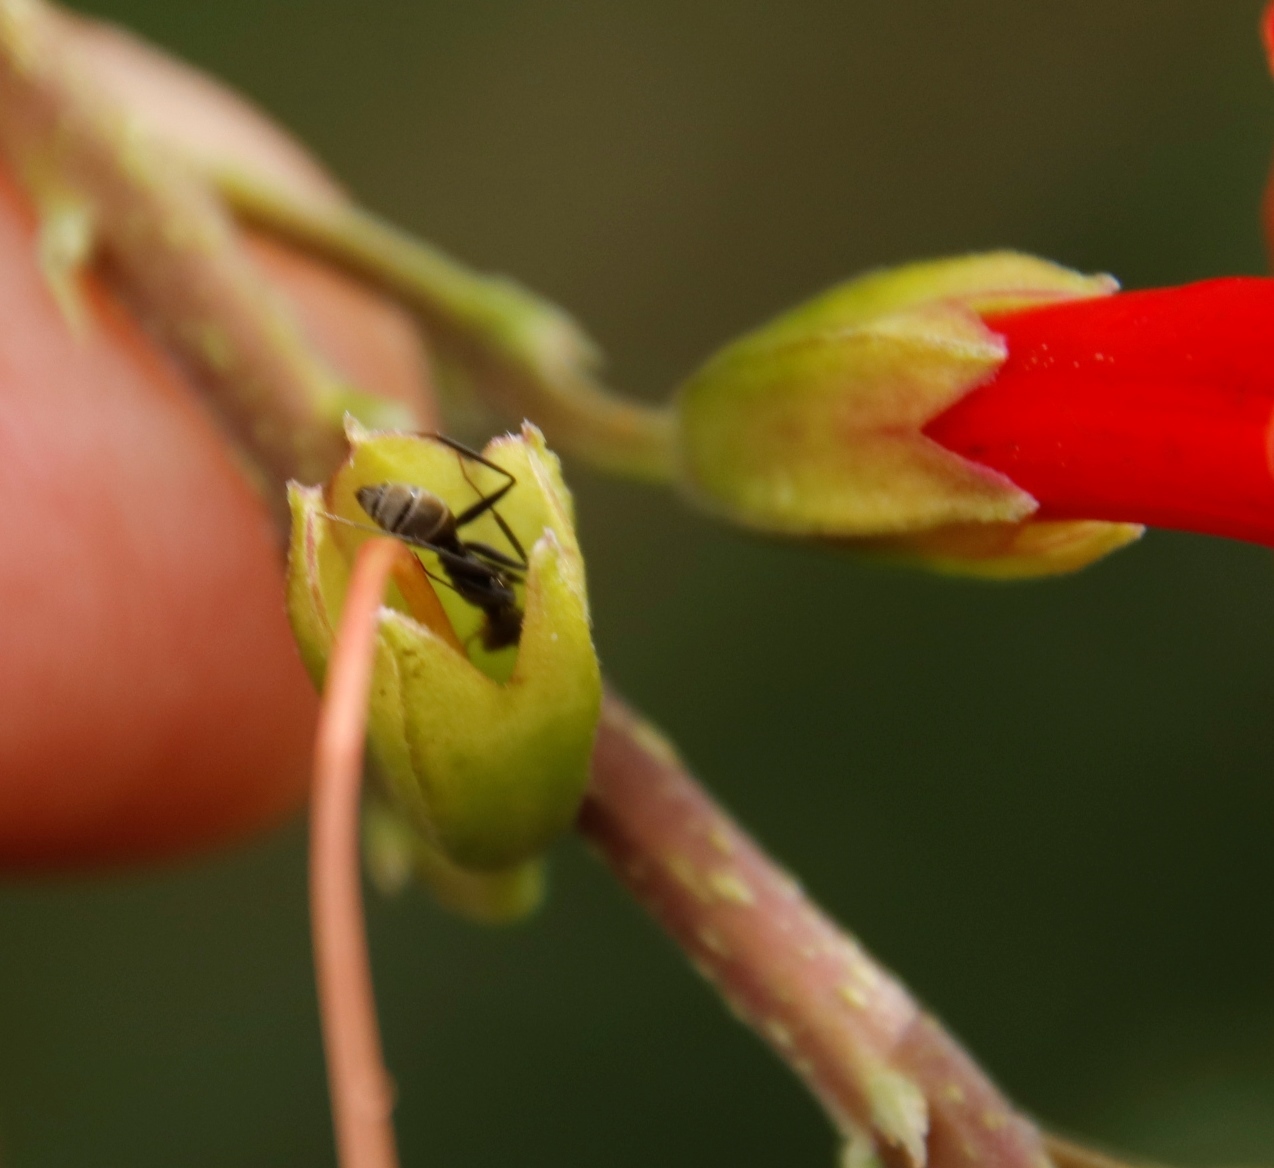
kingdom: Plantae
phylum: Tracheophyta
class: Magnoliopsida
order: Lamiales
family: Bignoniaceae
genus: Tecomaria
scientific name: Tecomaria capensis
